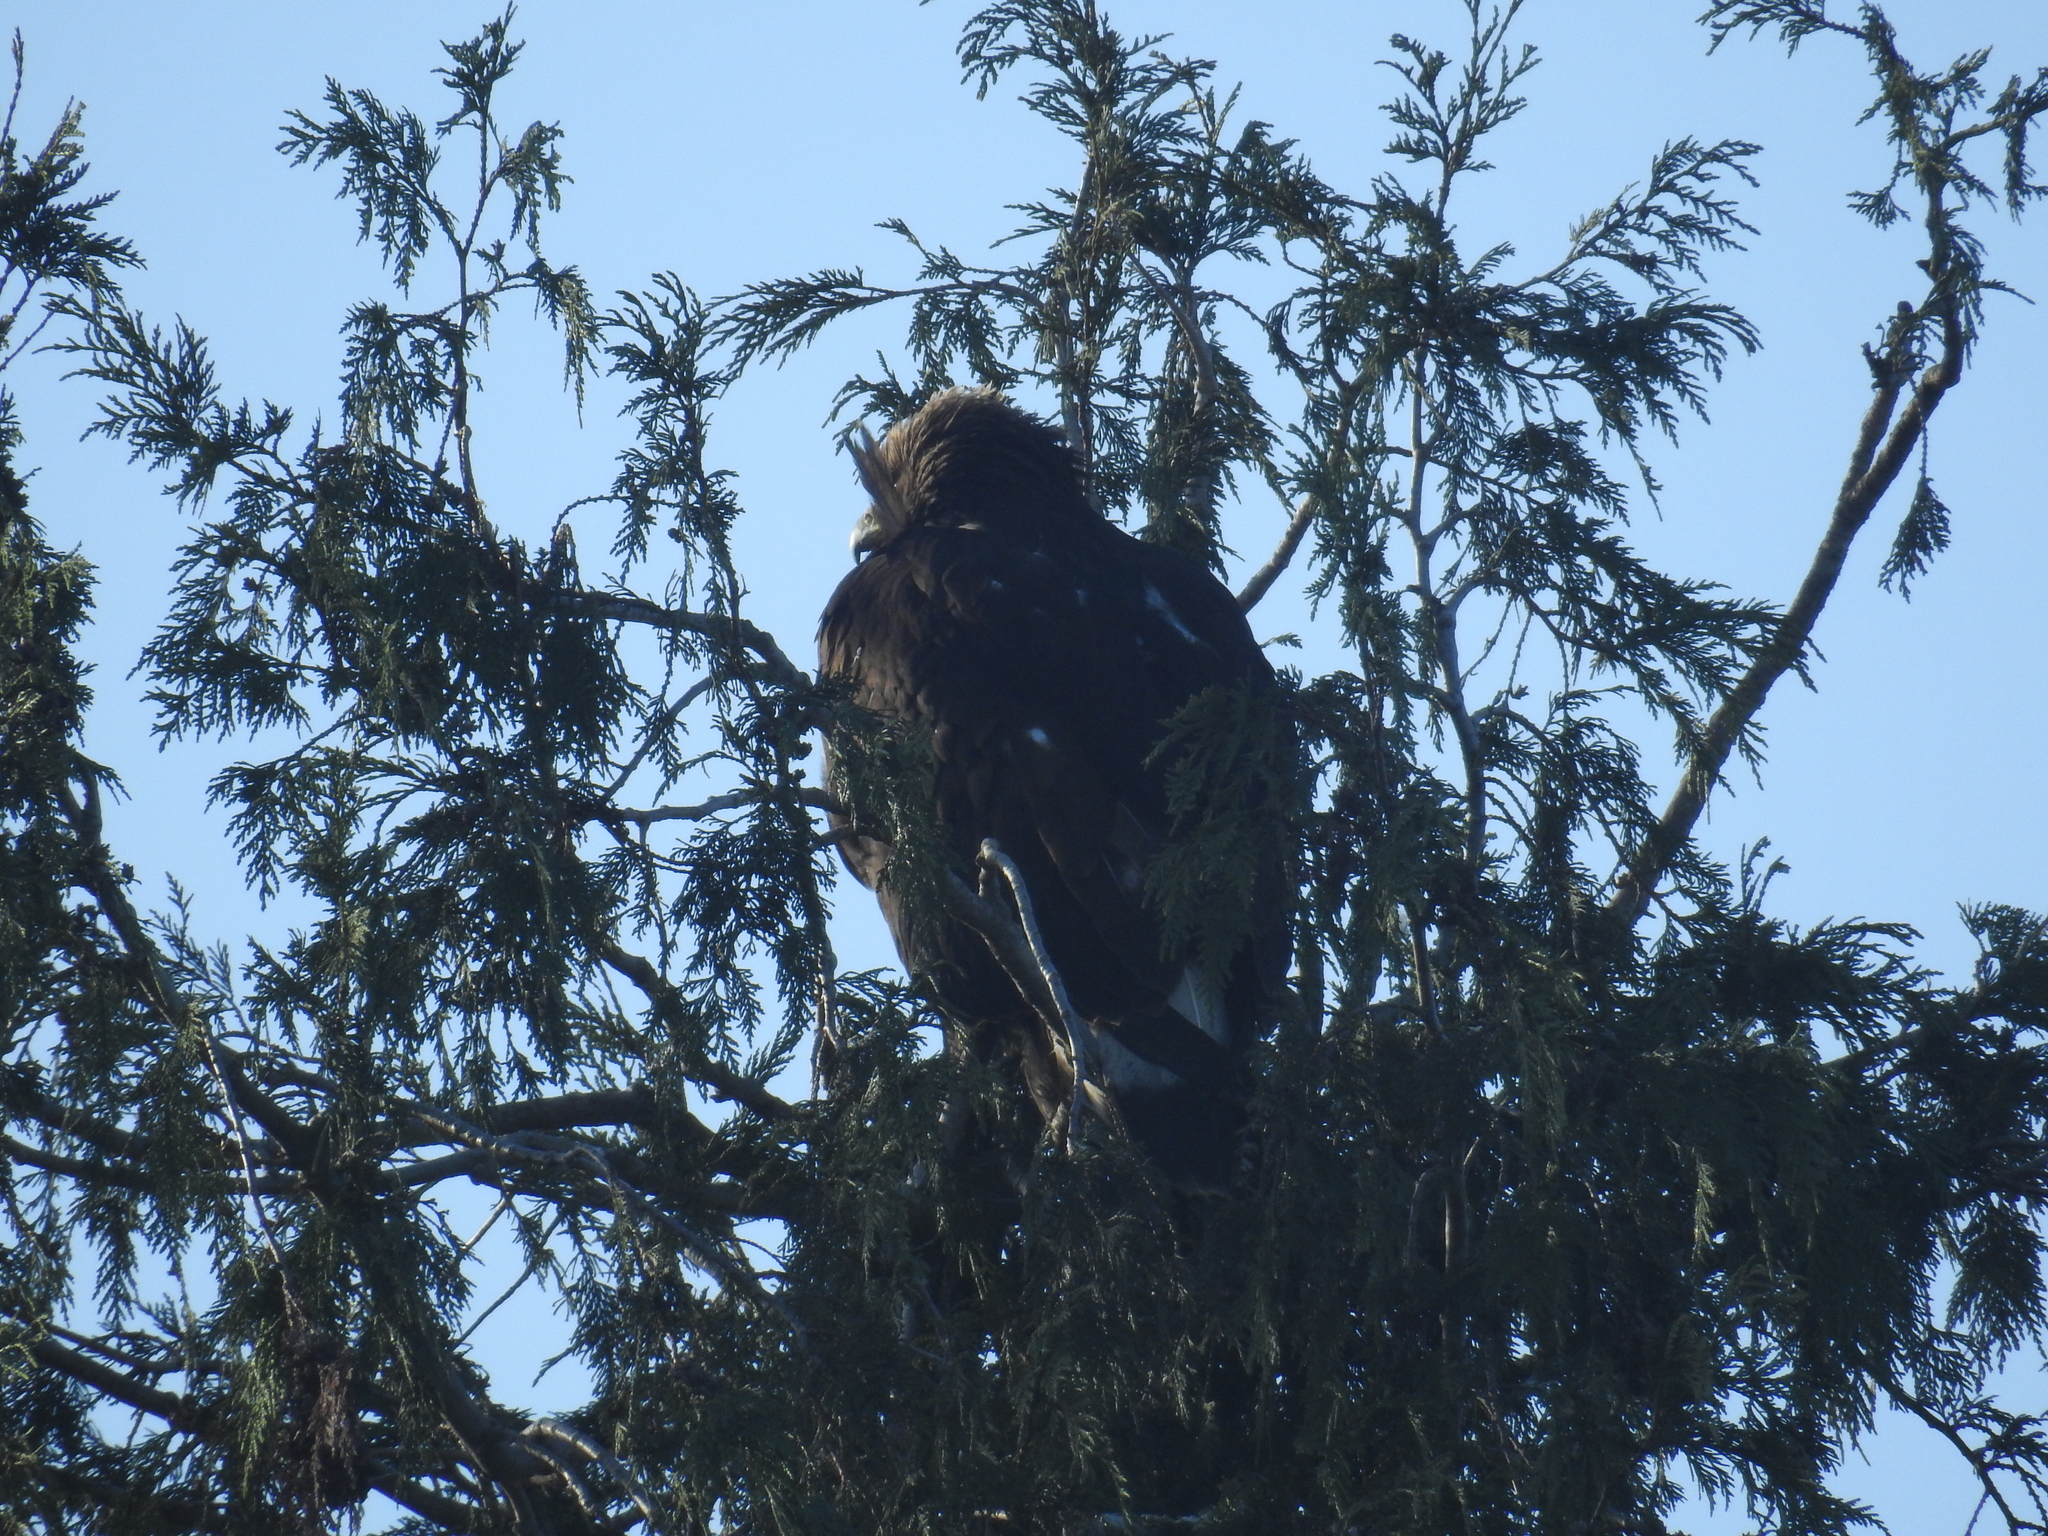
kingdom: Animalia
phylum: Chordata
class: Aves
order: Accipitriformes
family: Accipitridae
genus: Aquila
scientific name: Aquila chrysaetos
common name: Golden eagle
